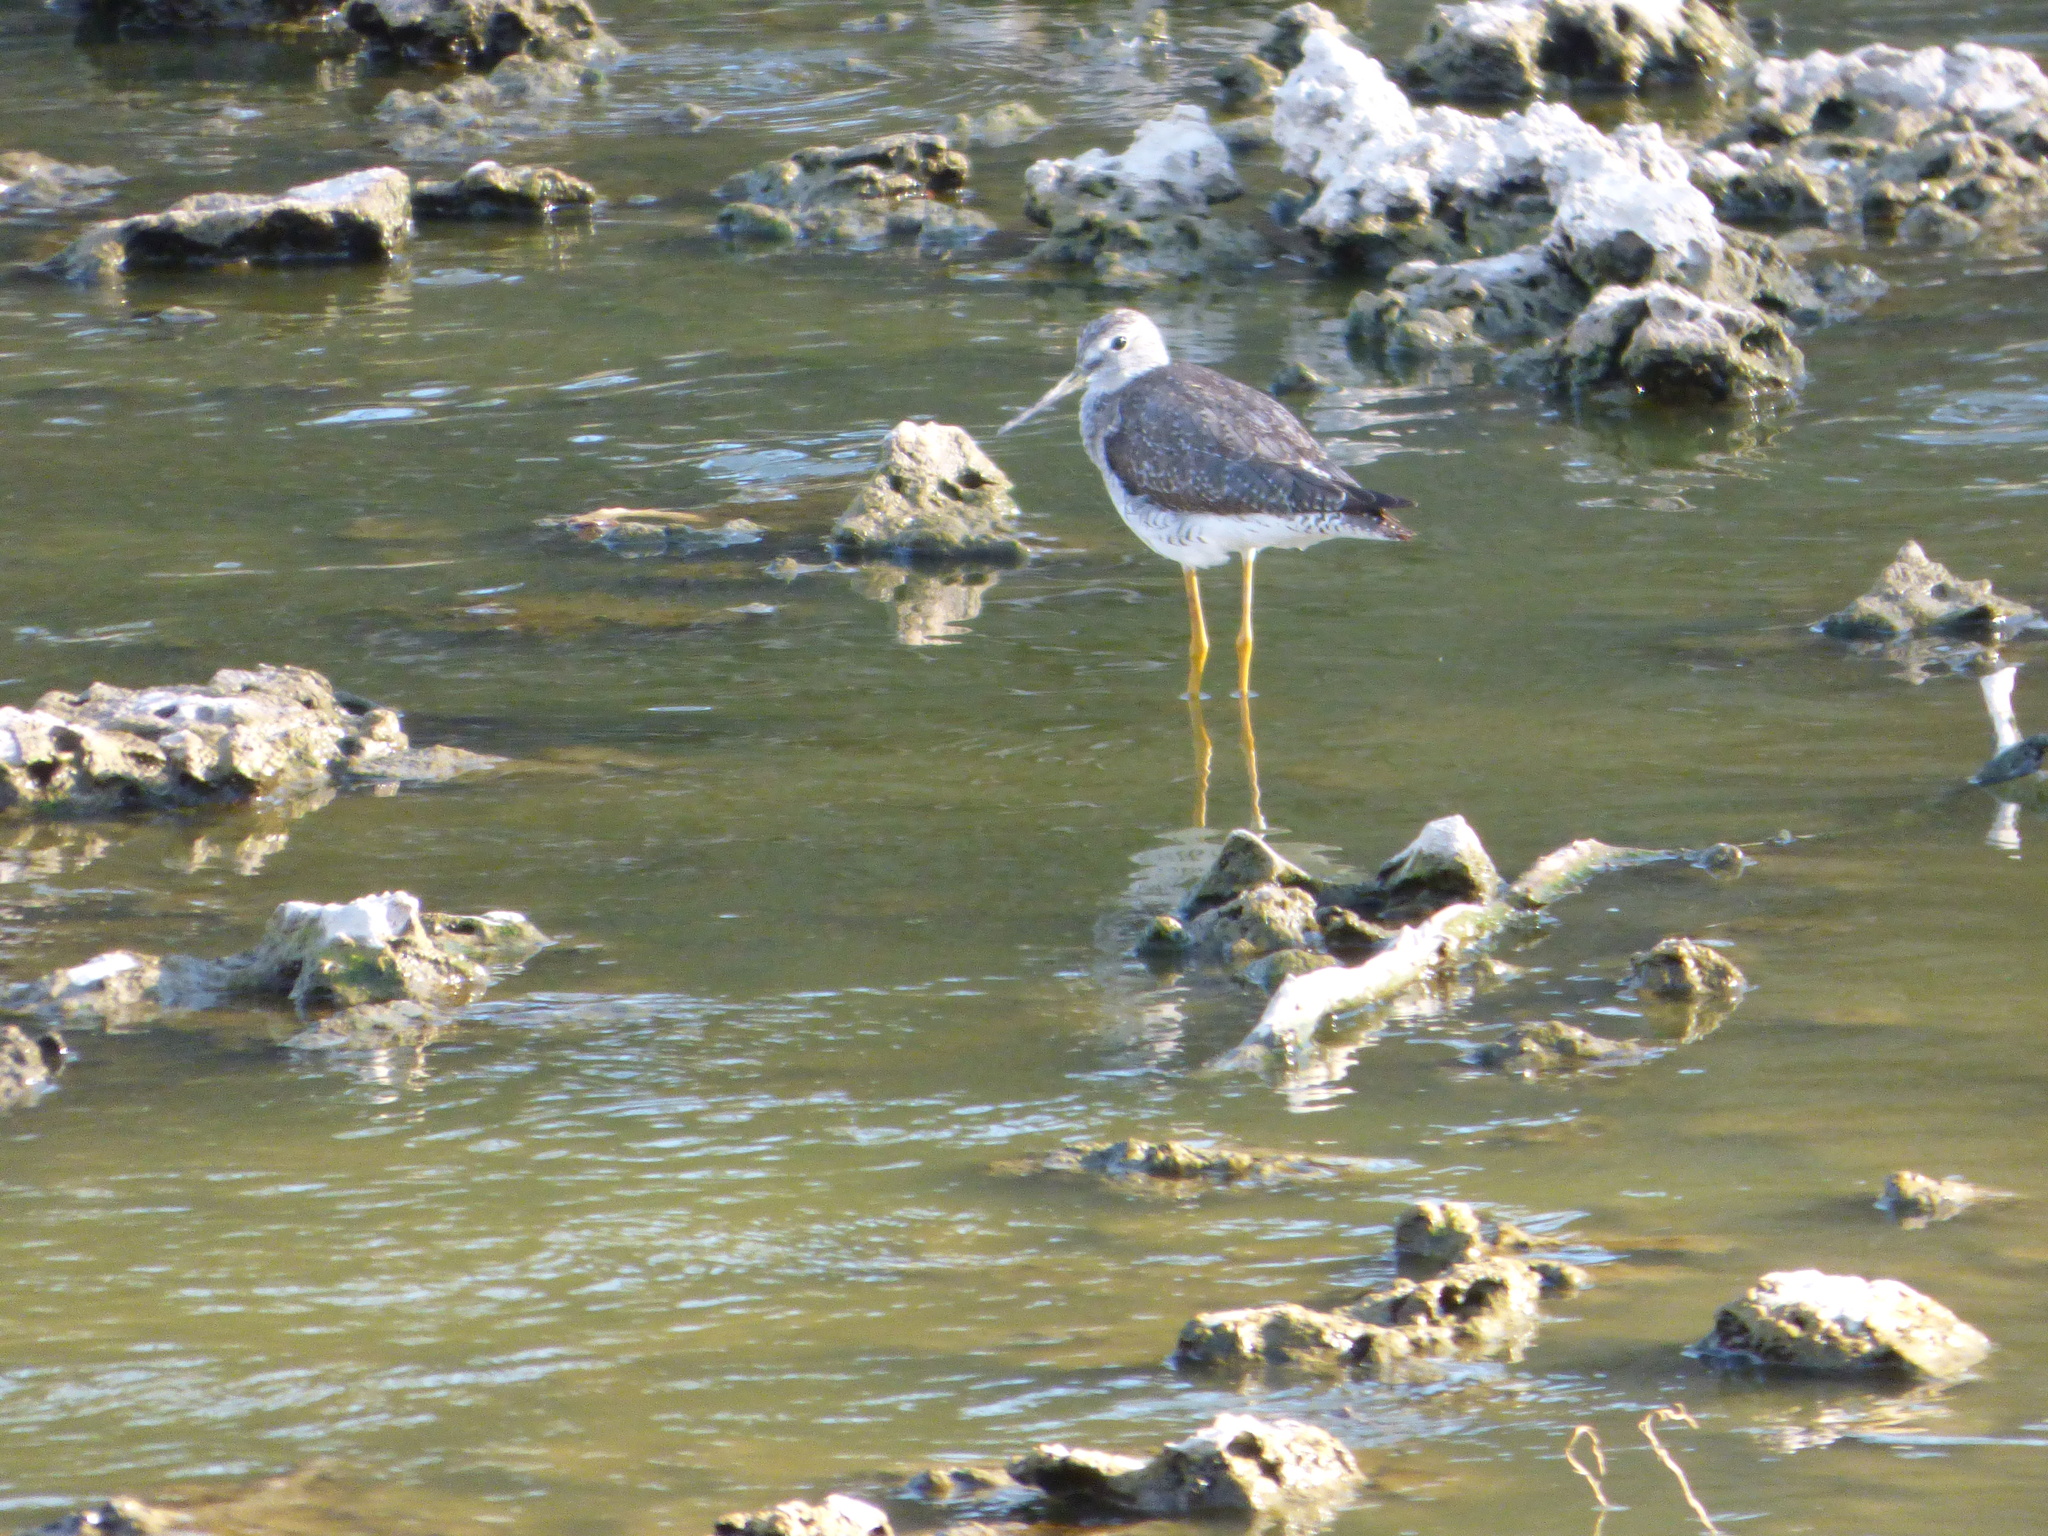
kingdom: Animalia
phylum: Chordata
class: Aves
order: Charadriiformes
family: Scolopacidae
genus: Tringa
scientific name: Tringa melanoleuca
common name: Greater yellowlegs
